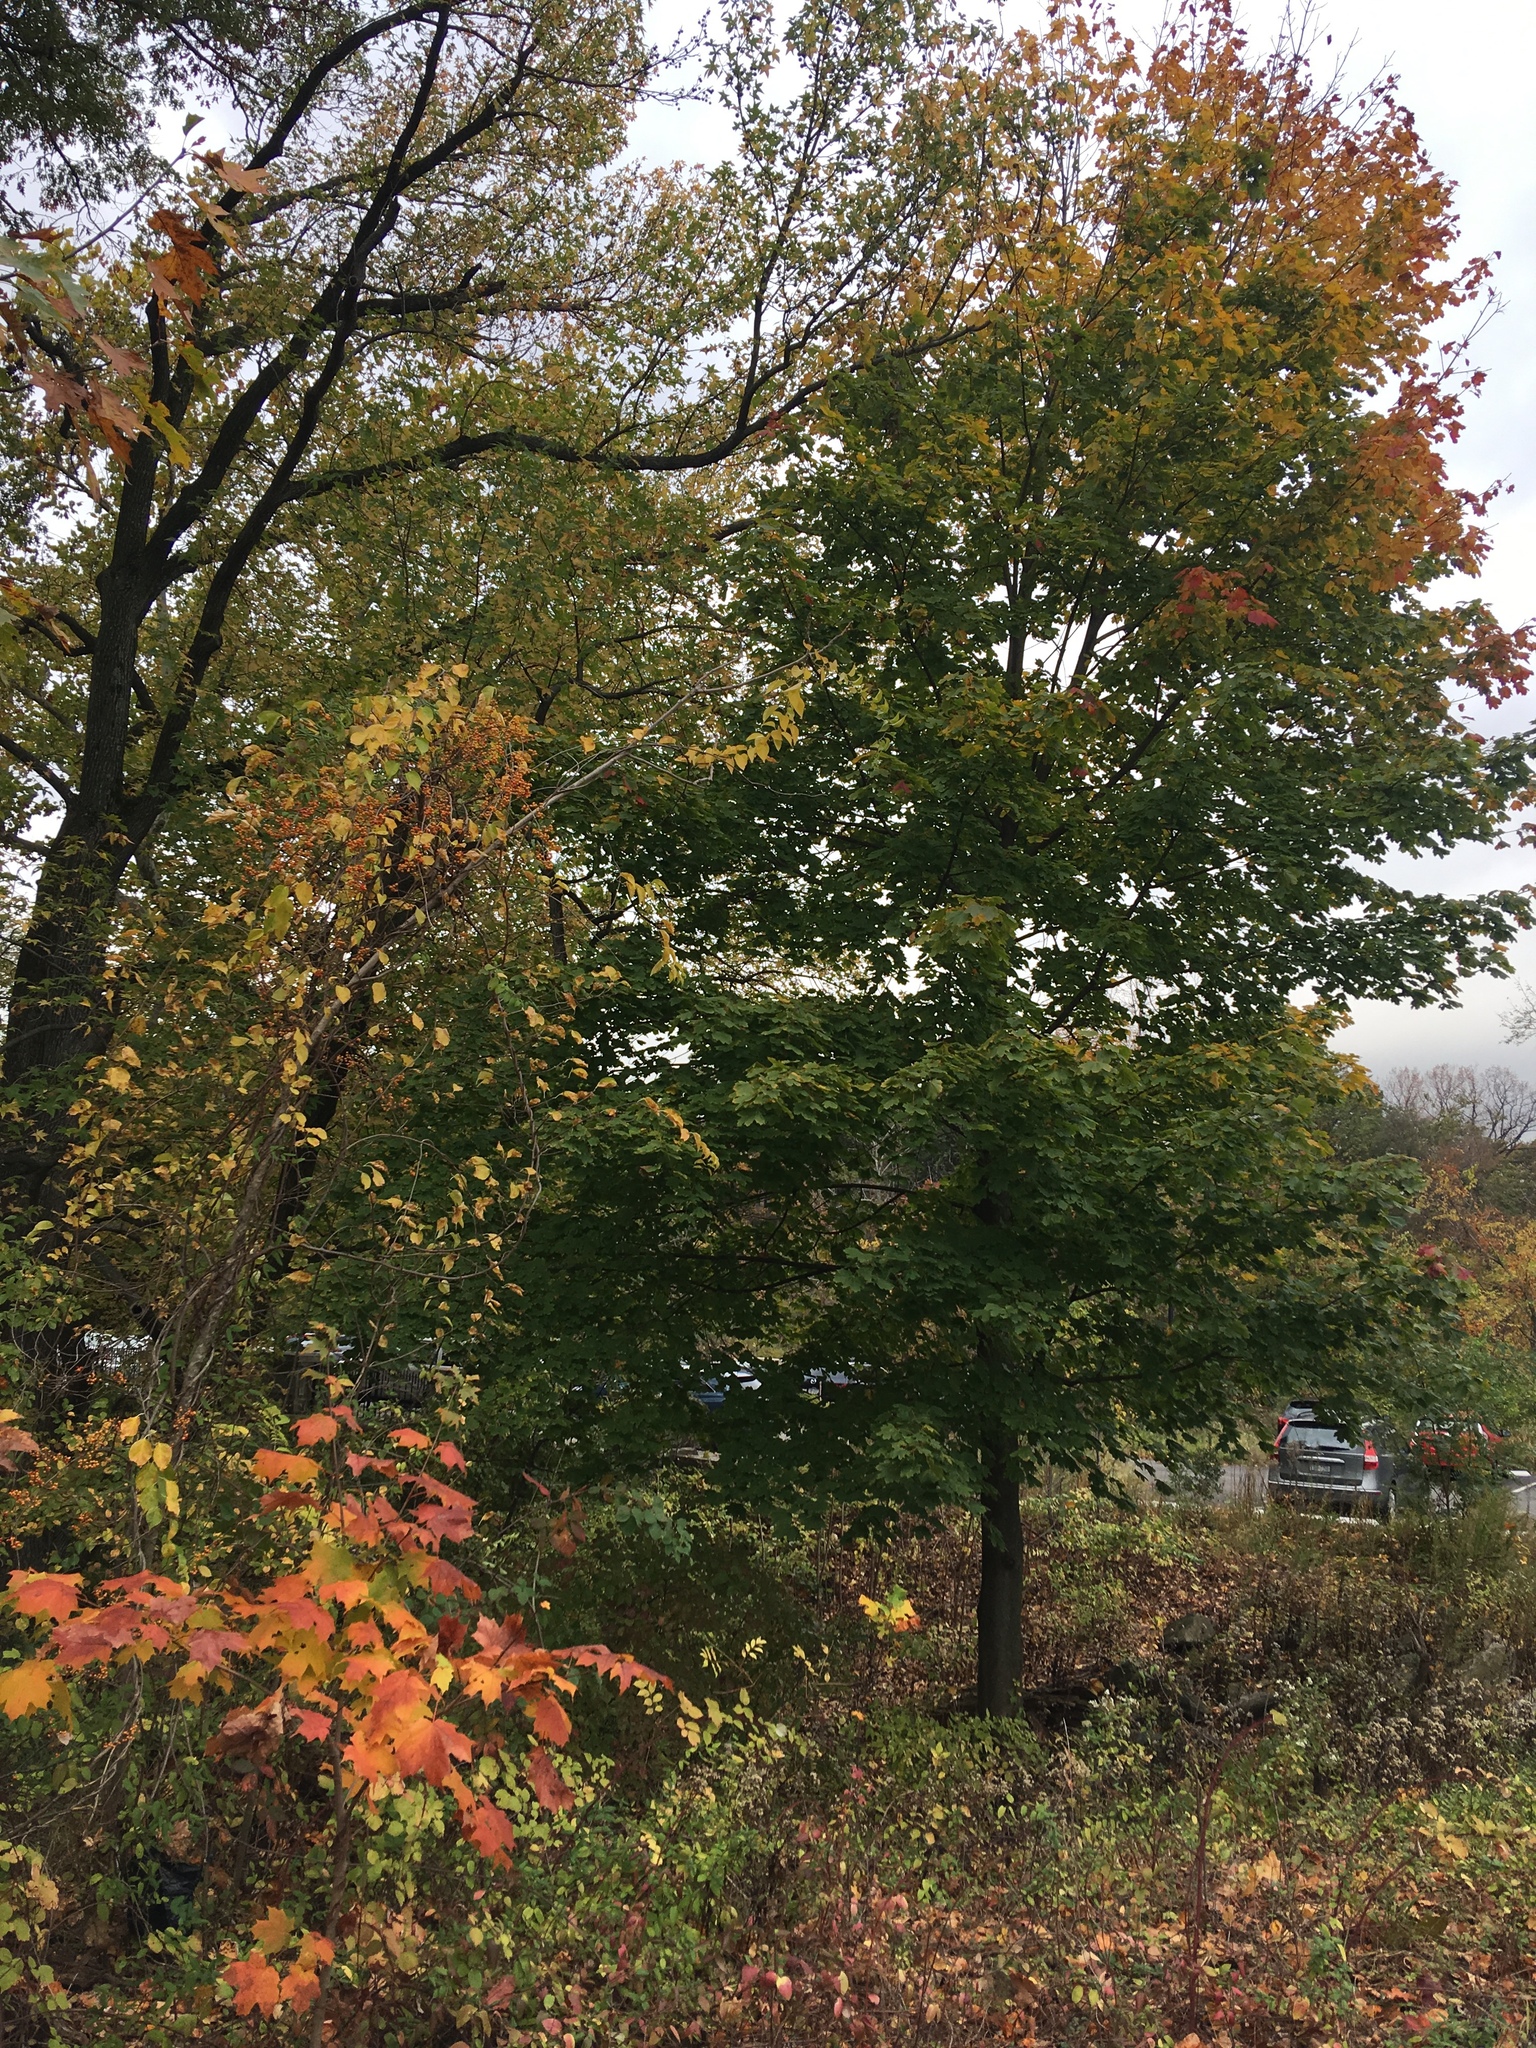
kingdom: Plantae
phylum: Tracheophyta
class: Magnoliopsida
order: Celastrales
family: Celastraceae
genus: Celastrus
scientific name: Celastrus orbiculatus
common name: Oriental bittersweet
